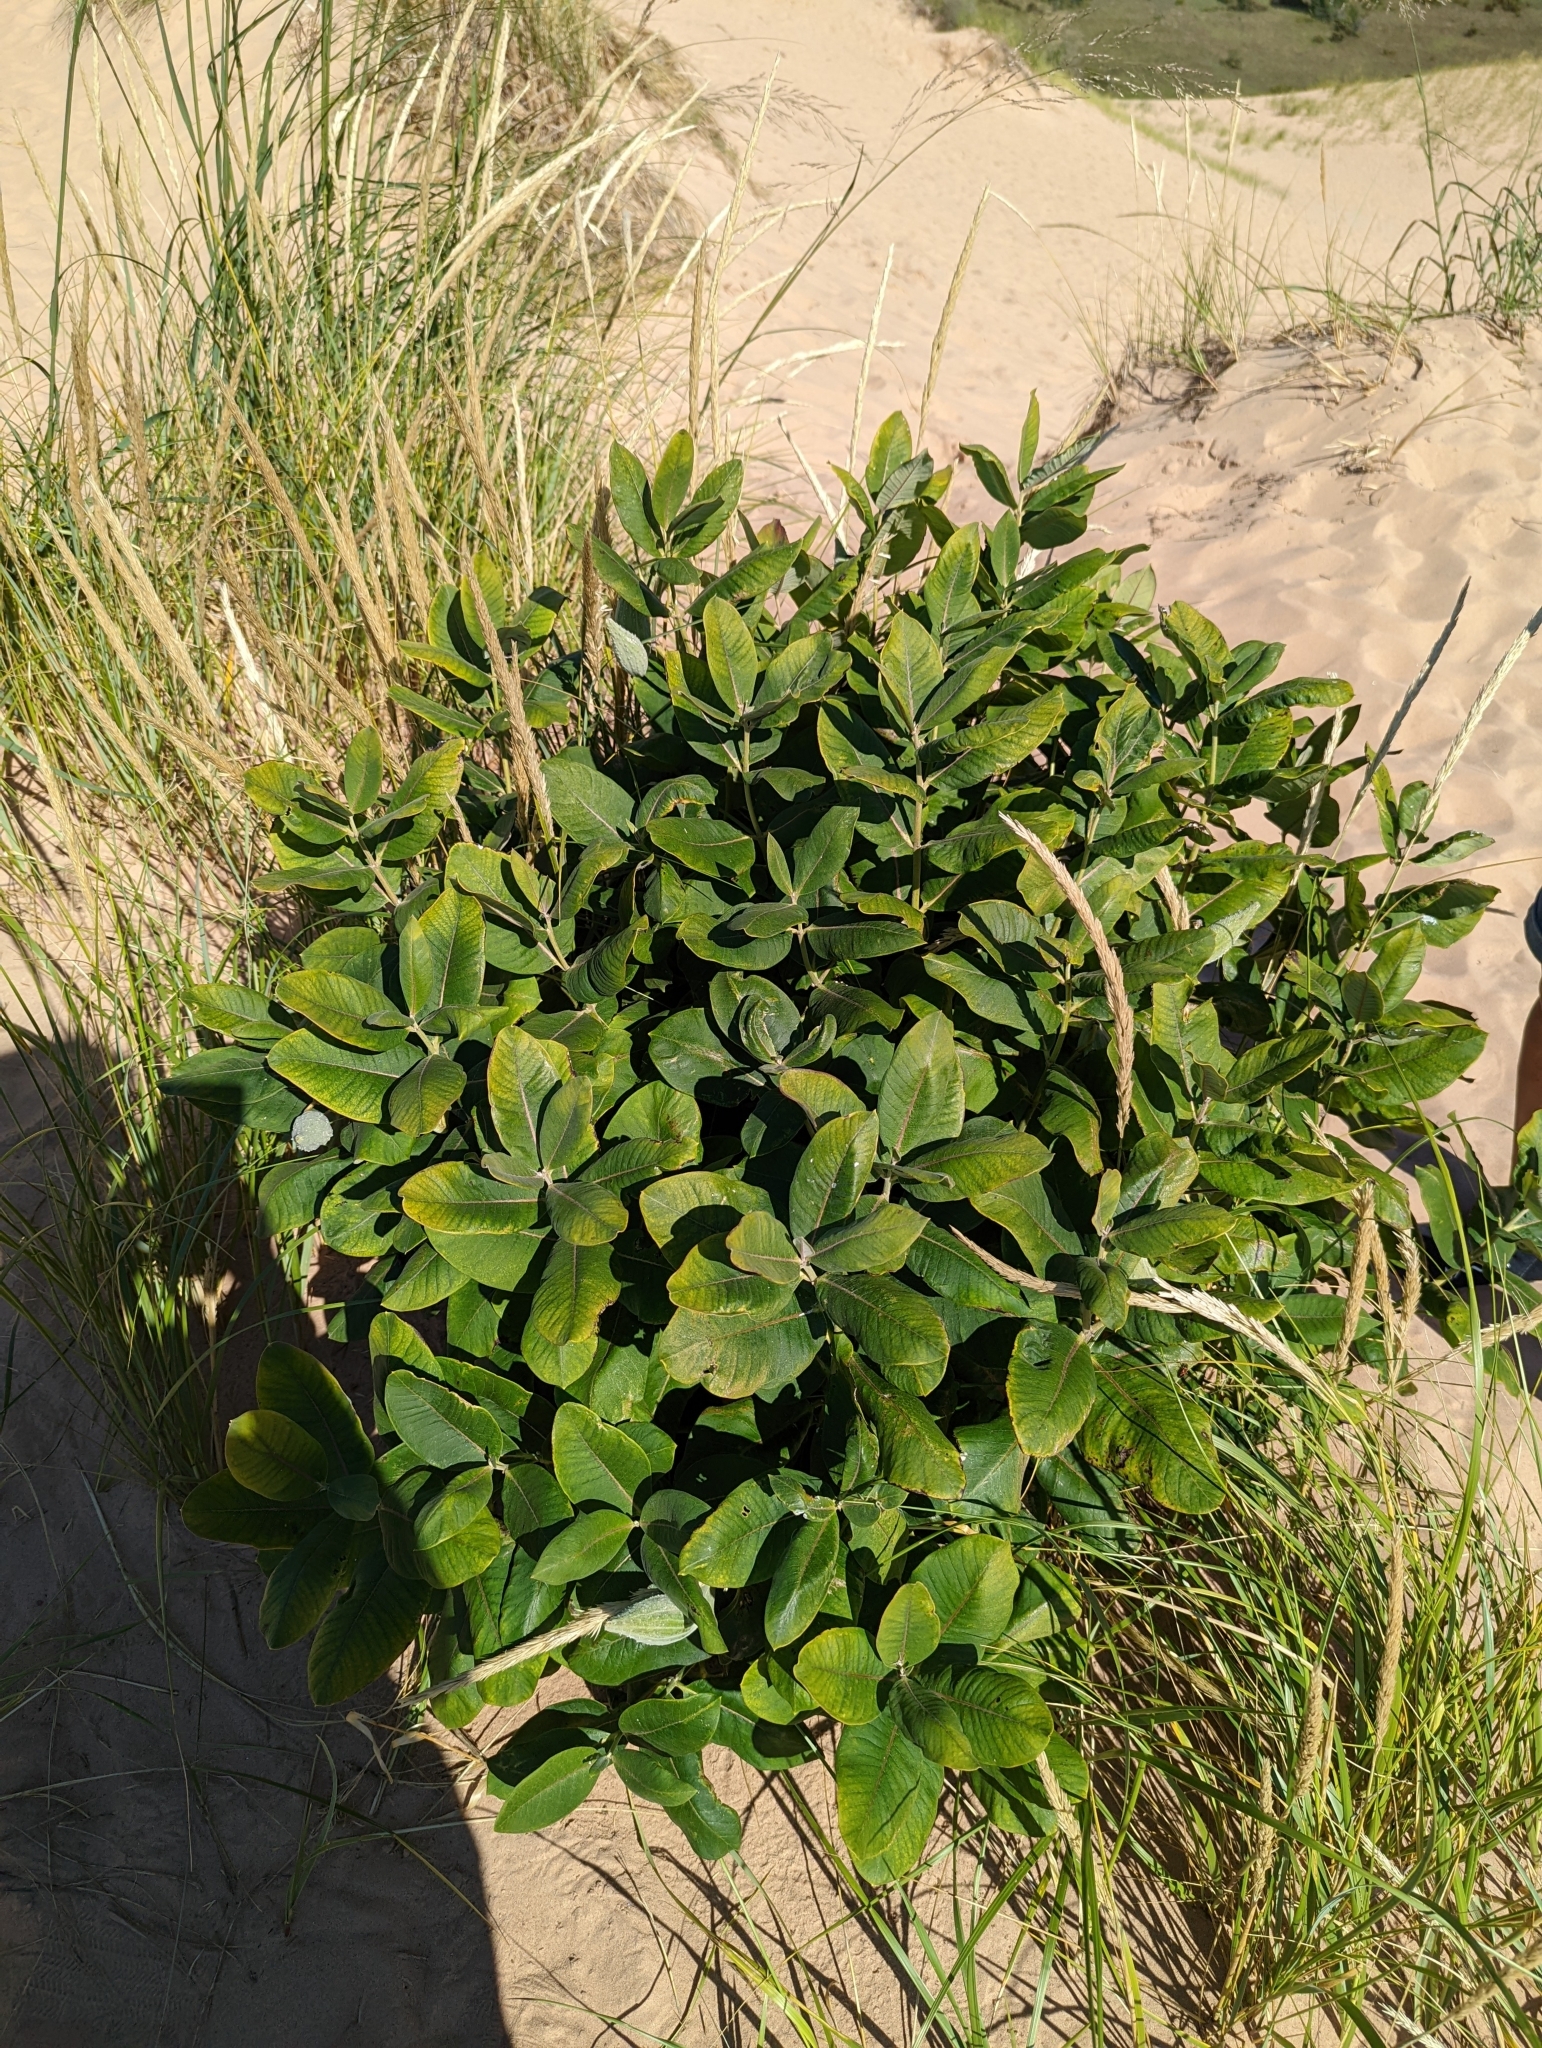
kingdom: Plantae
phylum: Tracheophyta
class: Magnoliopsida
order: Gentianales
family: Apocynaceae
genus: Asclepias
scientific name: Asclepias syriaca
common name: Common milkweed
